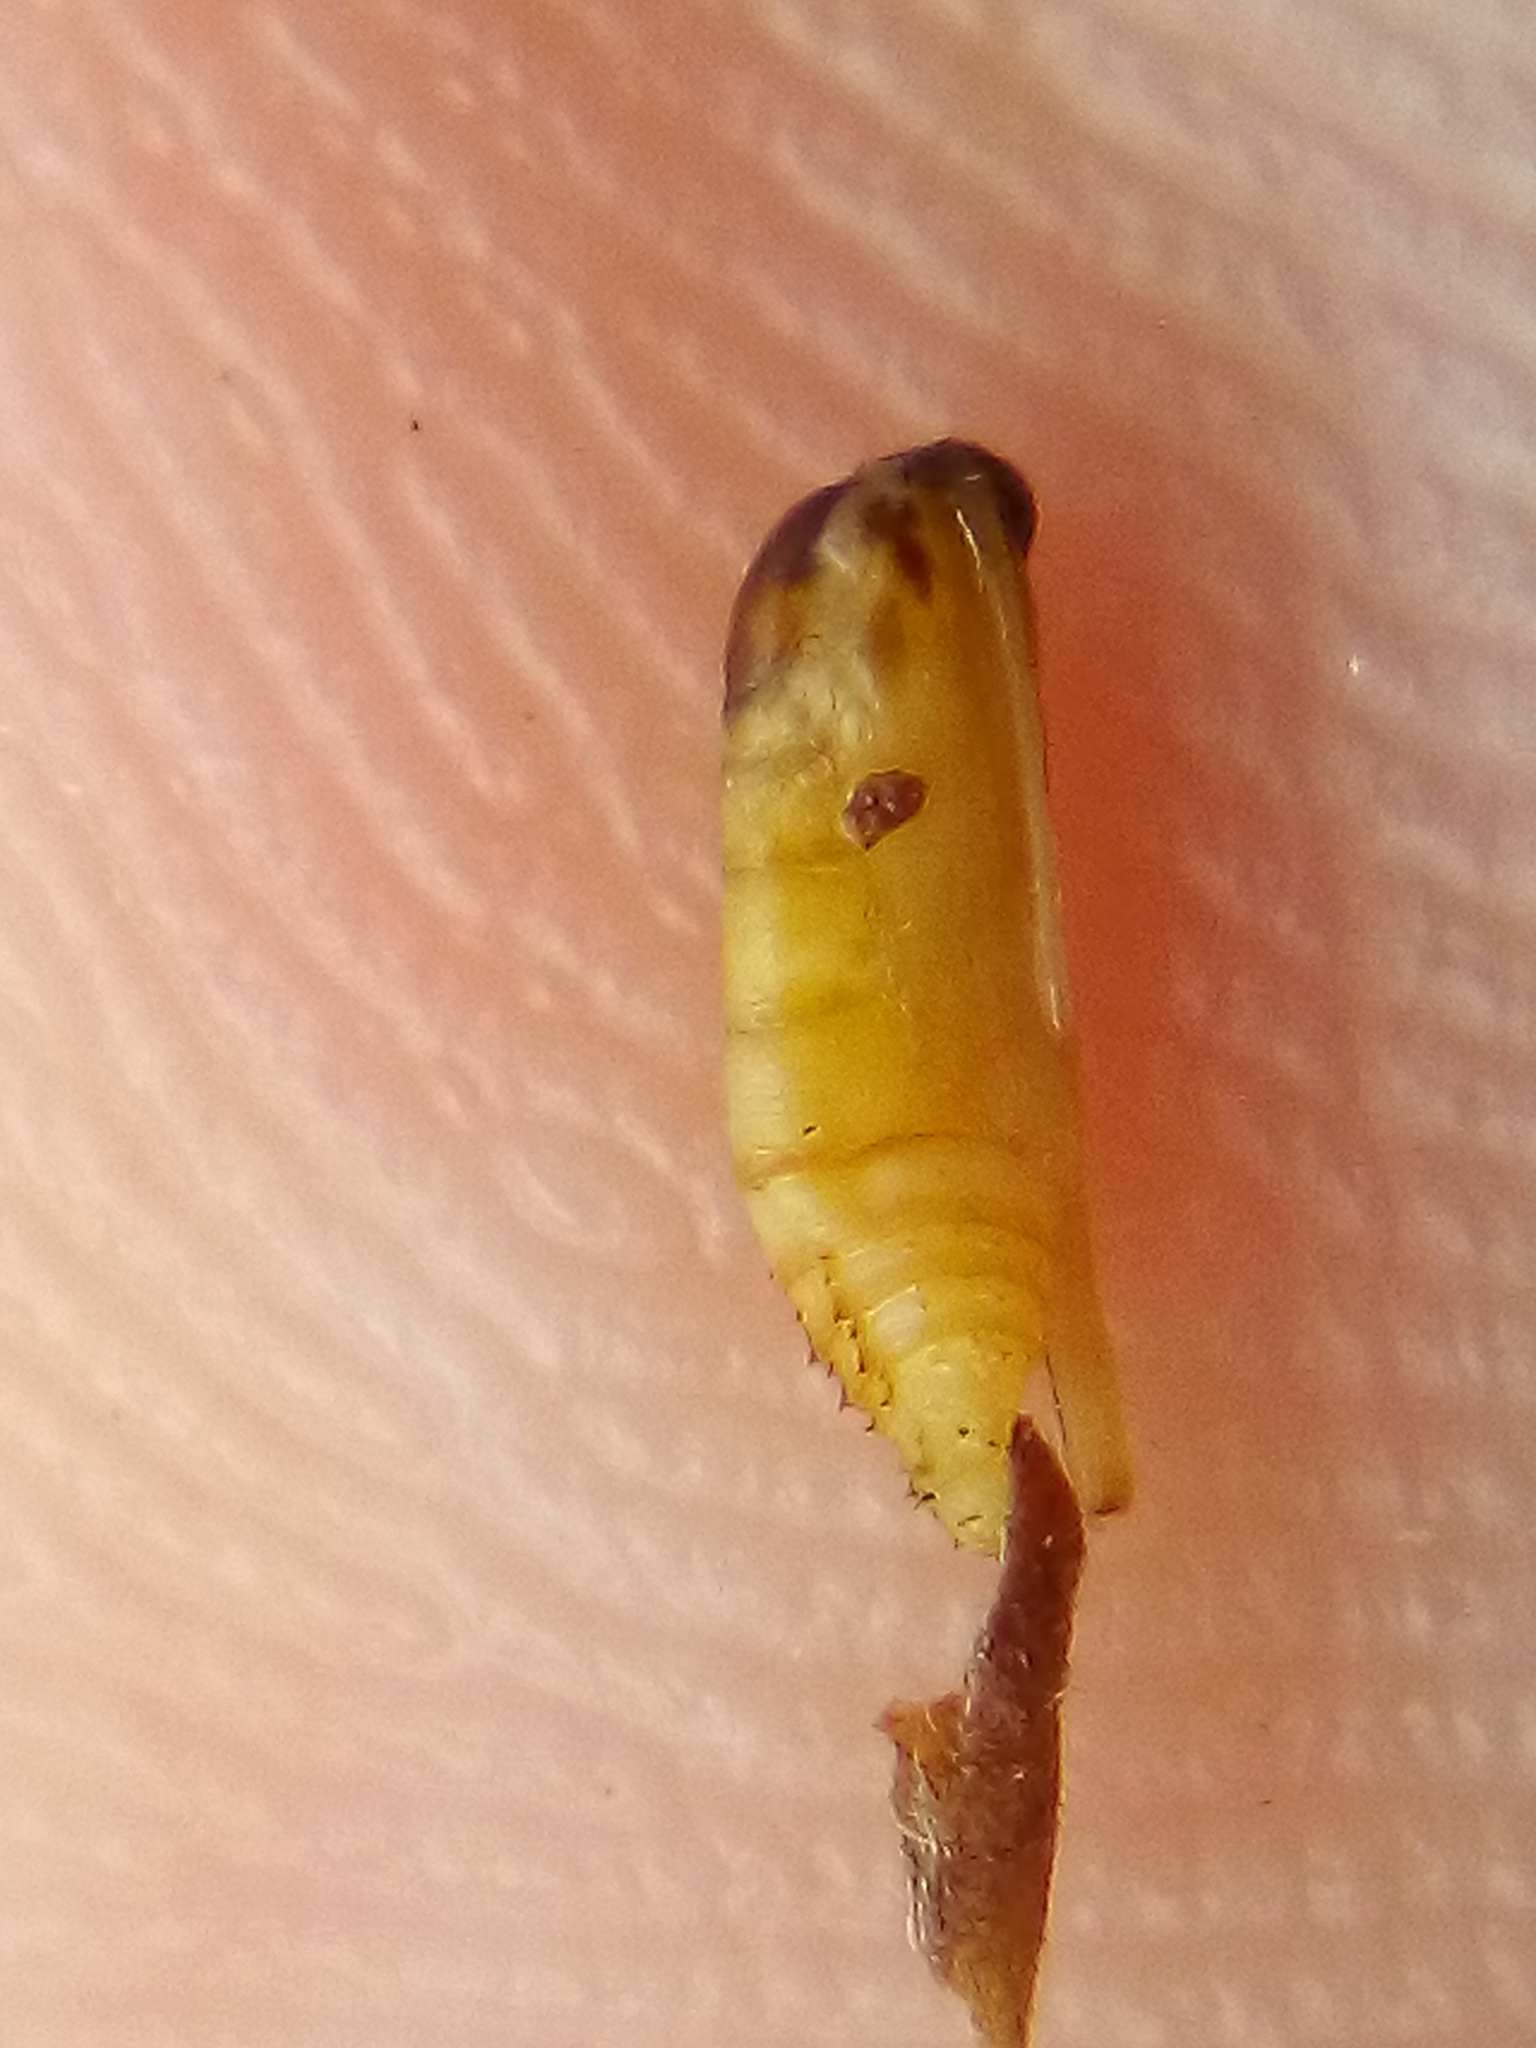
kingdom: Animalia
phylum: Arthropoda
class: Insecta
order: Lepidoptera
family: Pterophoridae
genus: Lantanophaga
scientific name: Lantanophaga pusillidactylus
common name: Moth
